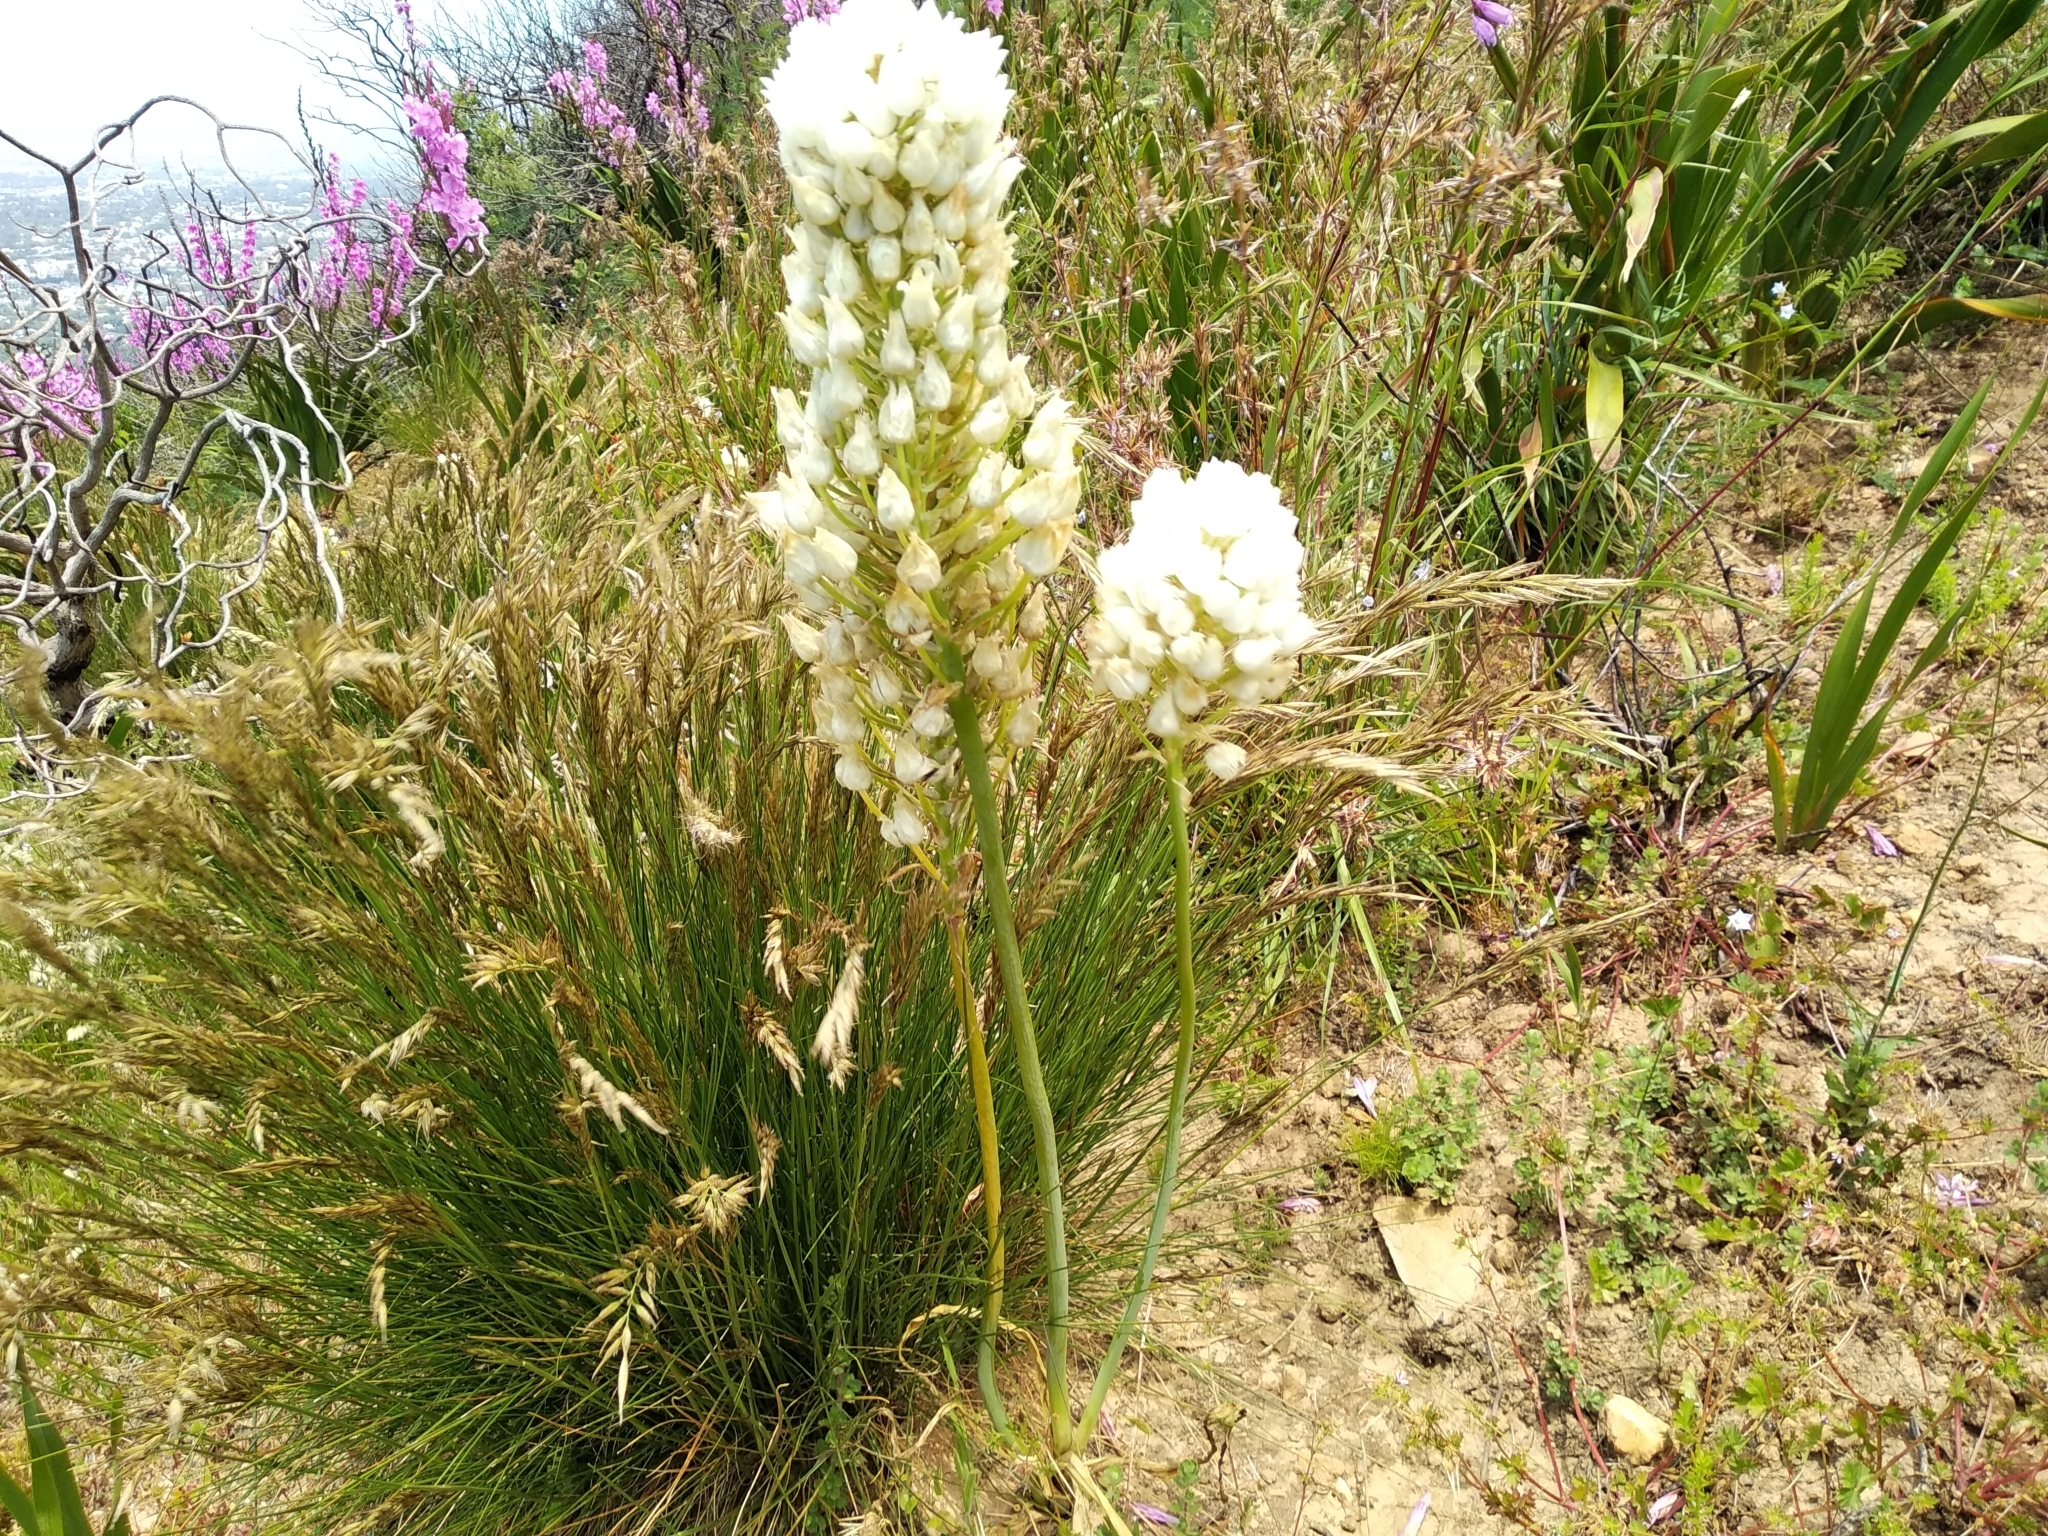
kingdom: Plantae
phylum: Tracheophyta
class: Liliopsida
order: Asparagales
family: Asparagaceae
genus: Ornithogalum
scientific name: Ornithogalum thyrsoides
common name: Chincherinchee
